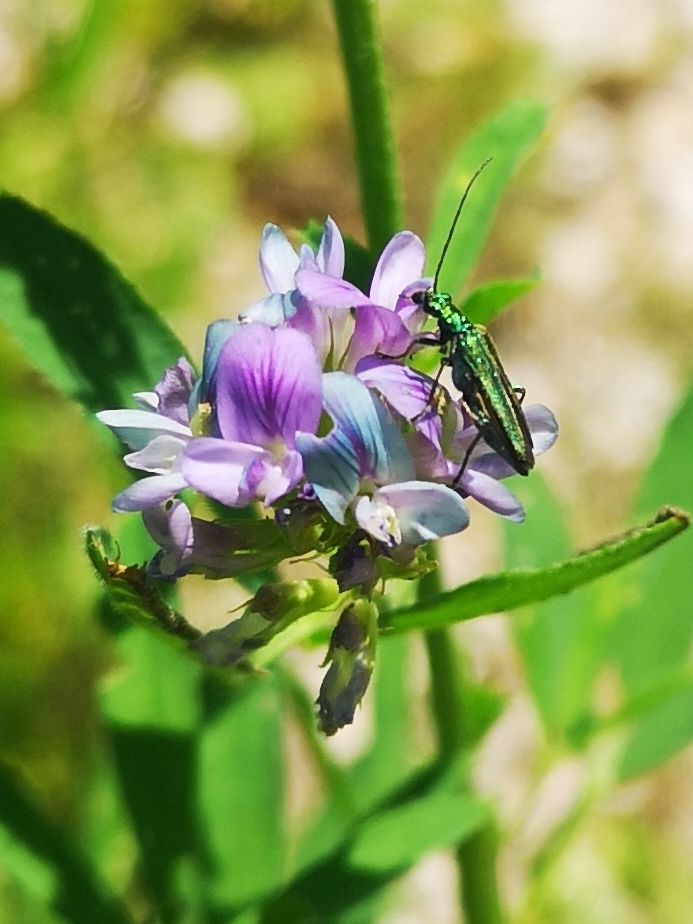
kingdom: Animalia
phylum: Arthropoda
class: Insecta
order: Coleoptera
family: Oedemeridae
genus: Oedemera
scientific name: Oedemera nobilis
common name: Swollen-thighed beetle
